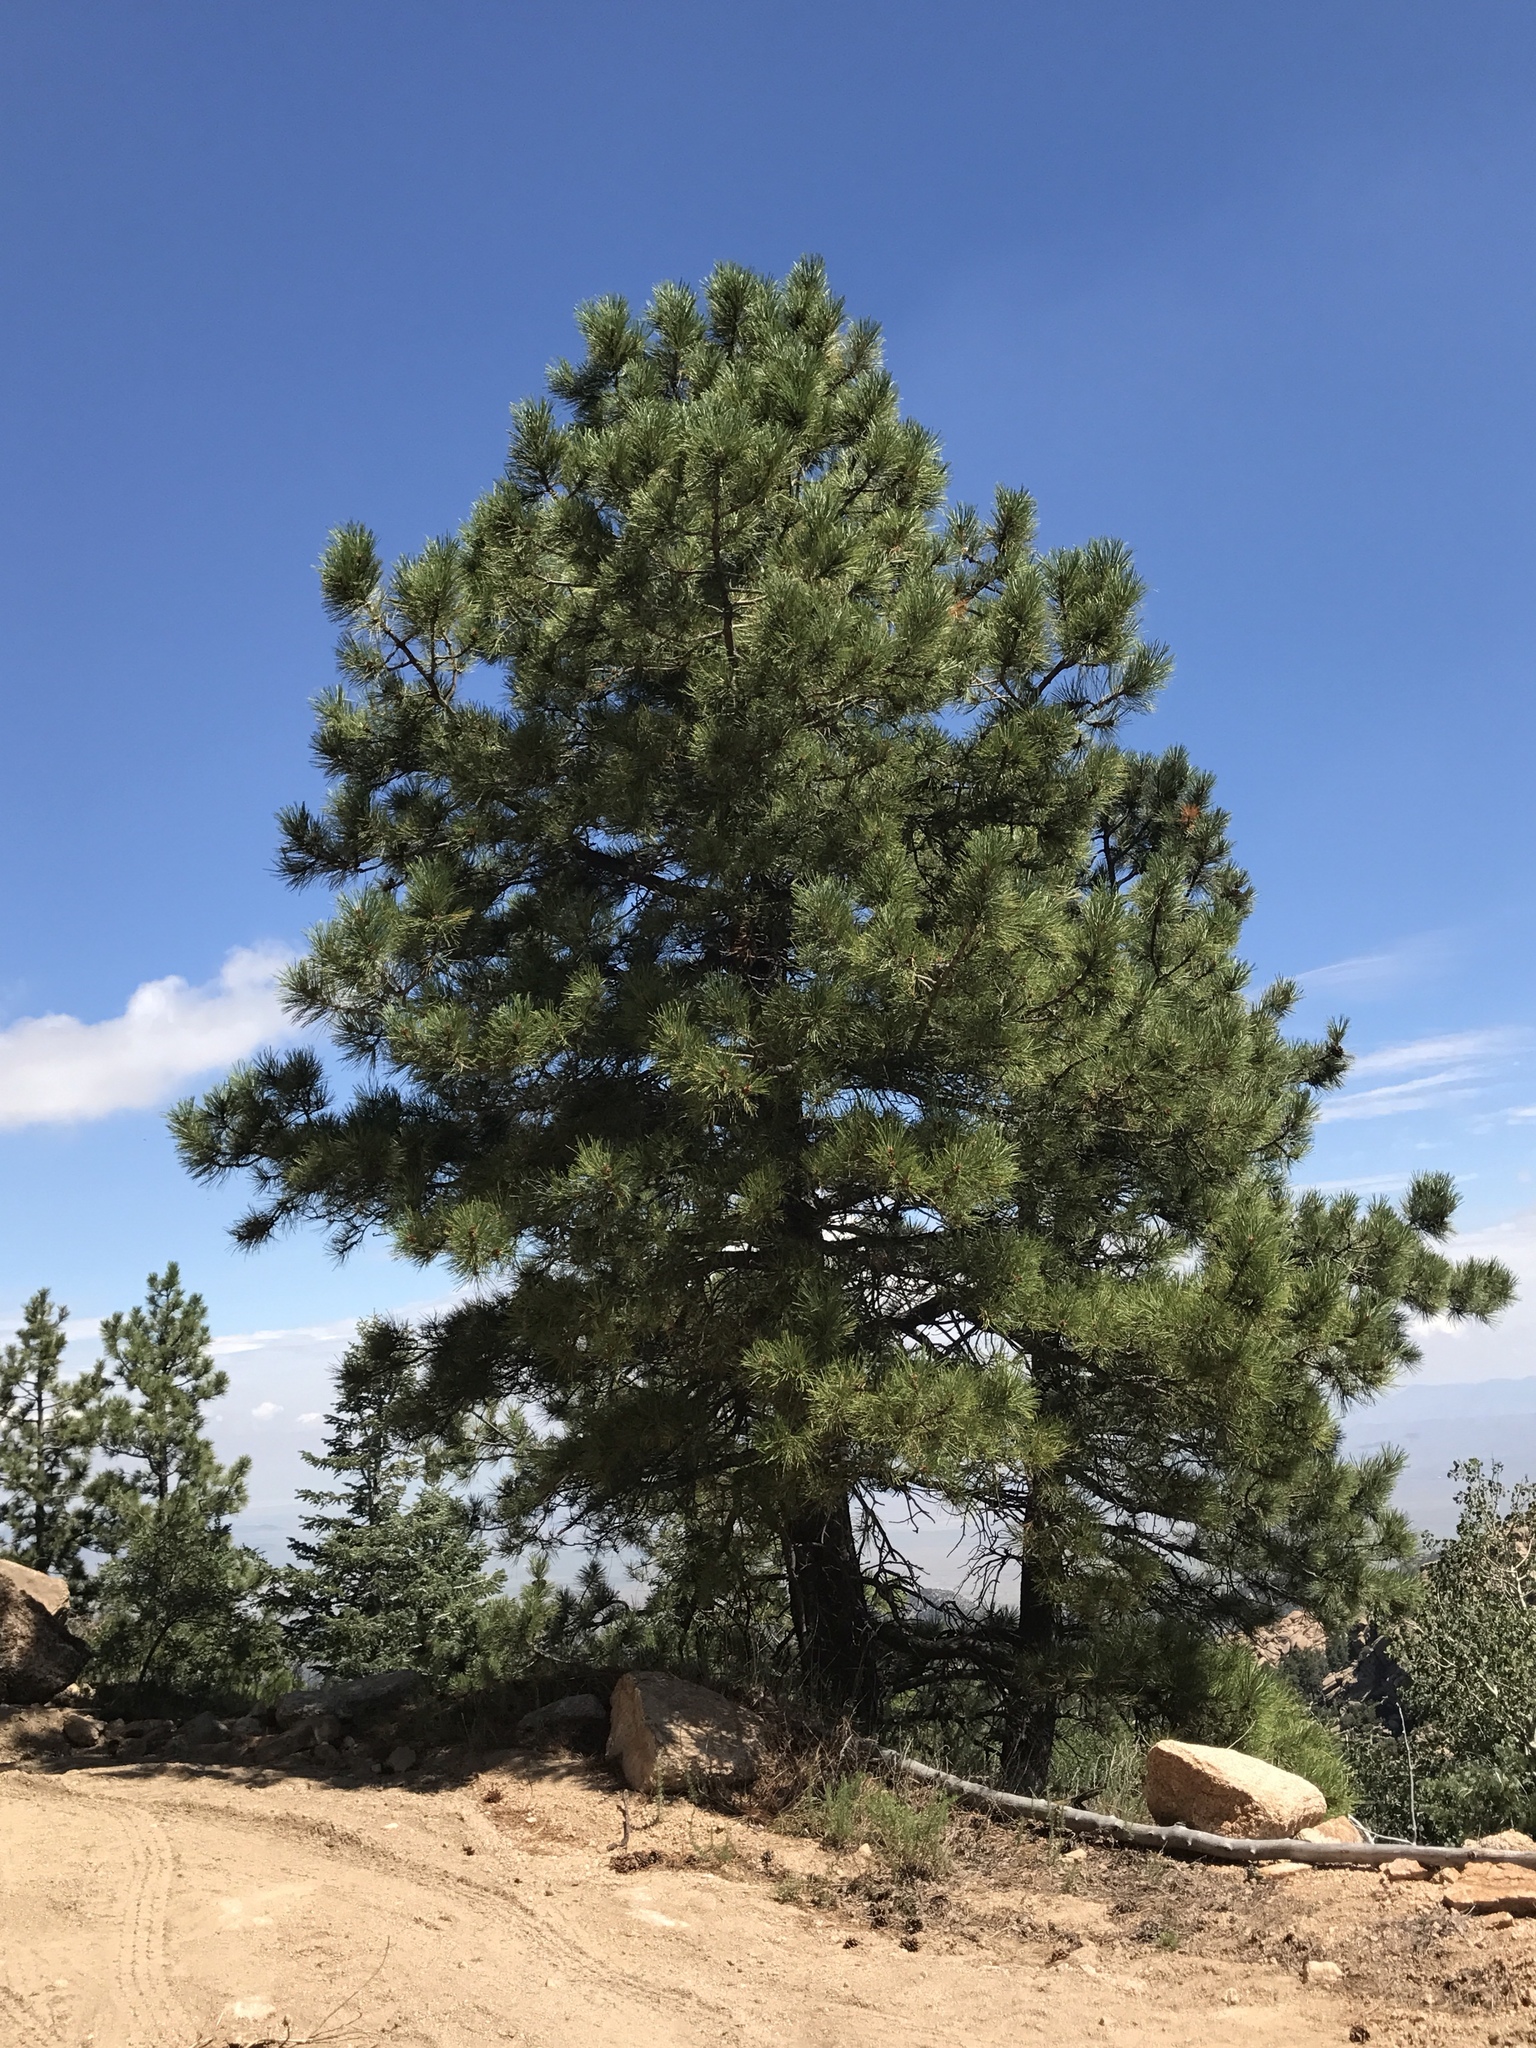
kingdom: Plantae
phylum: Tracheophyta
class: Pinopsida
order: Pinales
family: Pinaceae
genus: Pinus
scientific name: Pinus ponderosa
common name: Western yellow-pine
